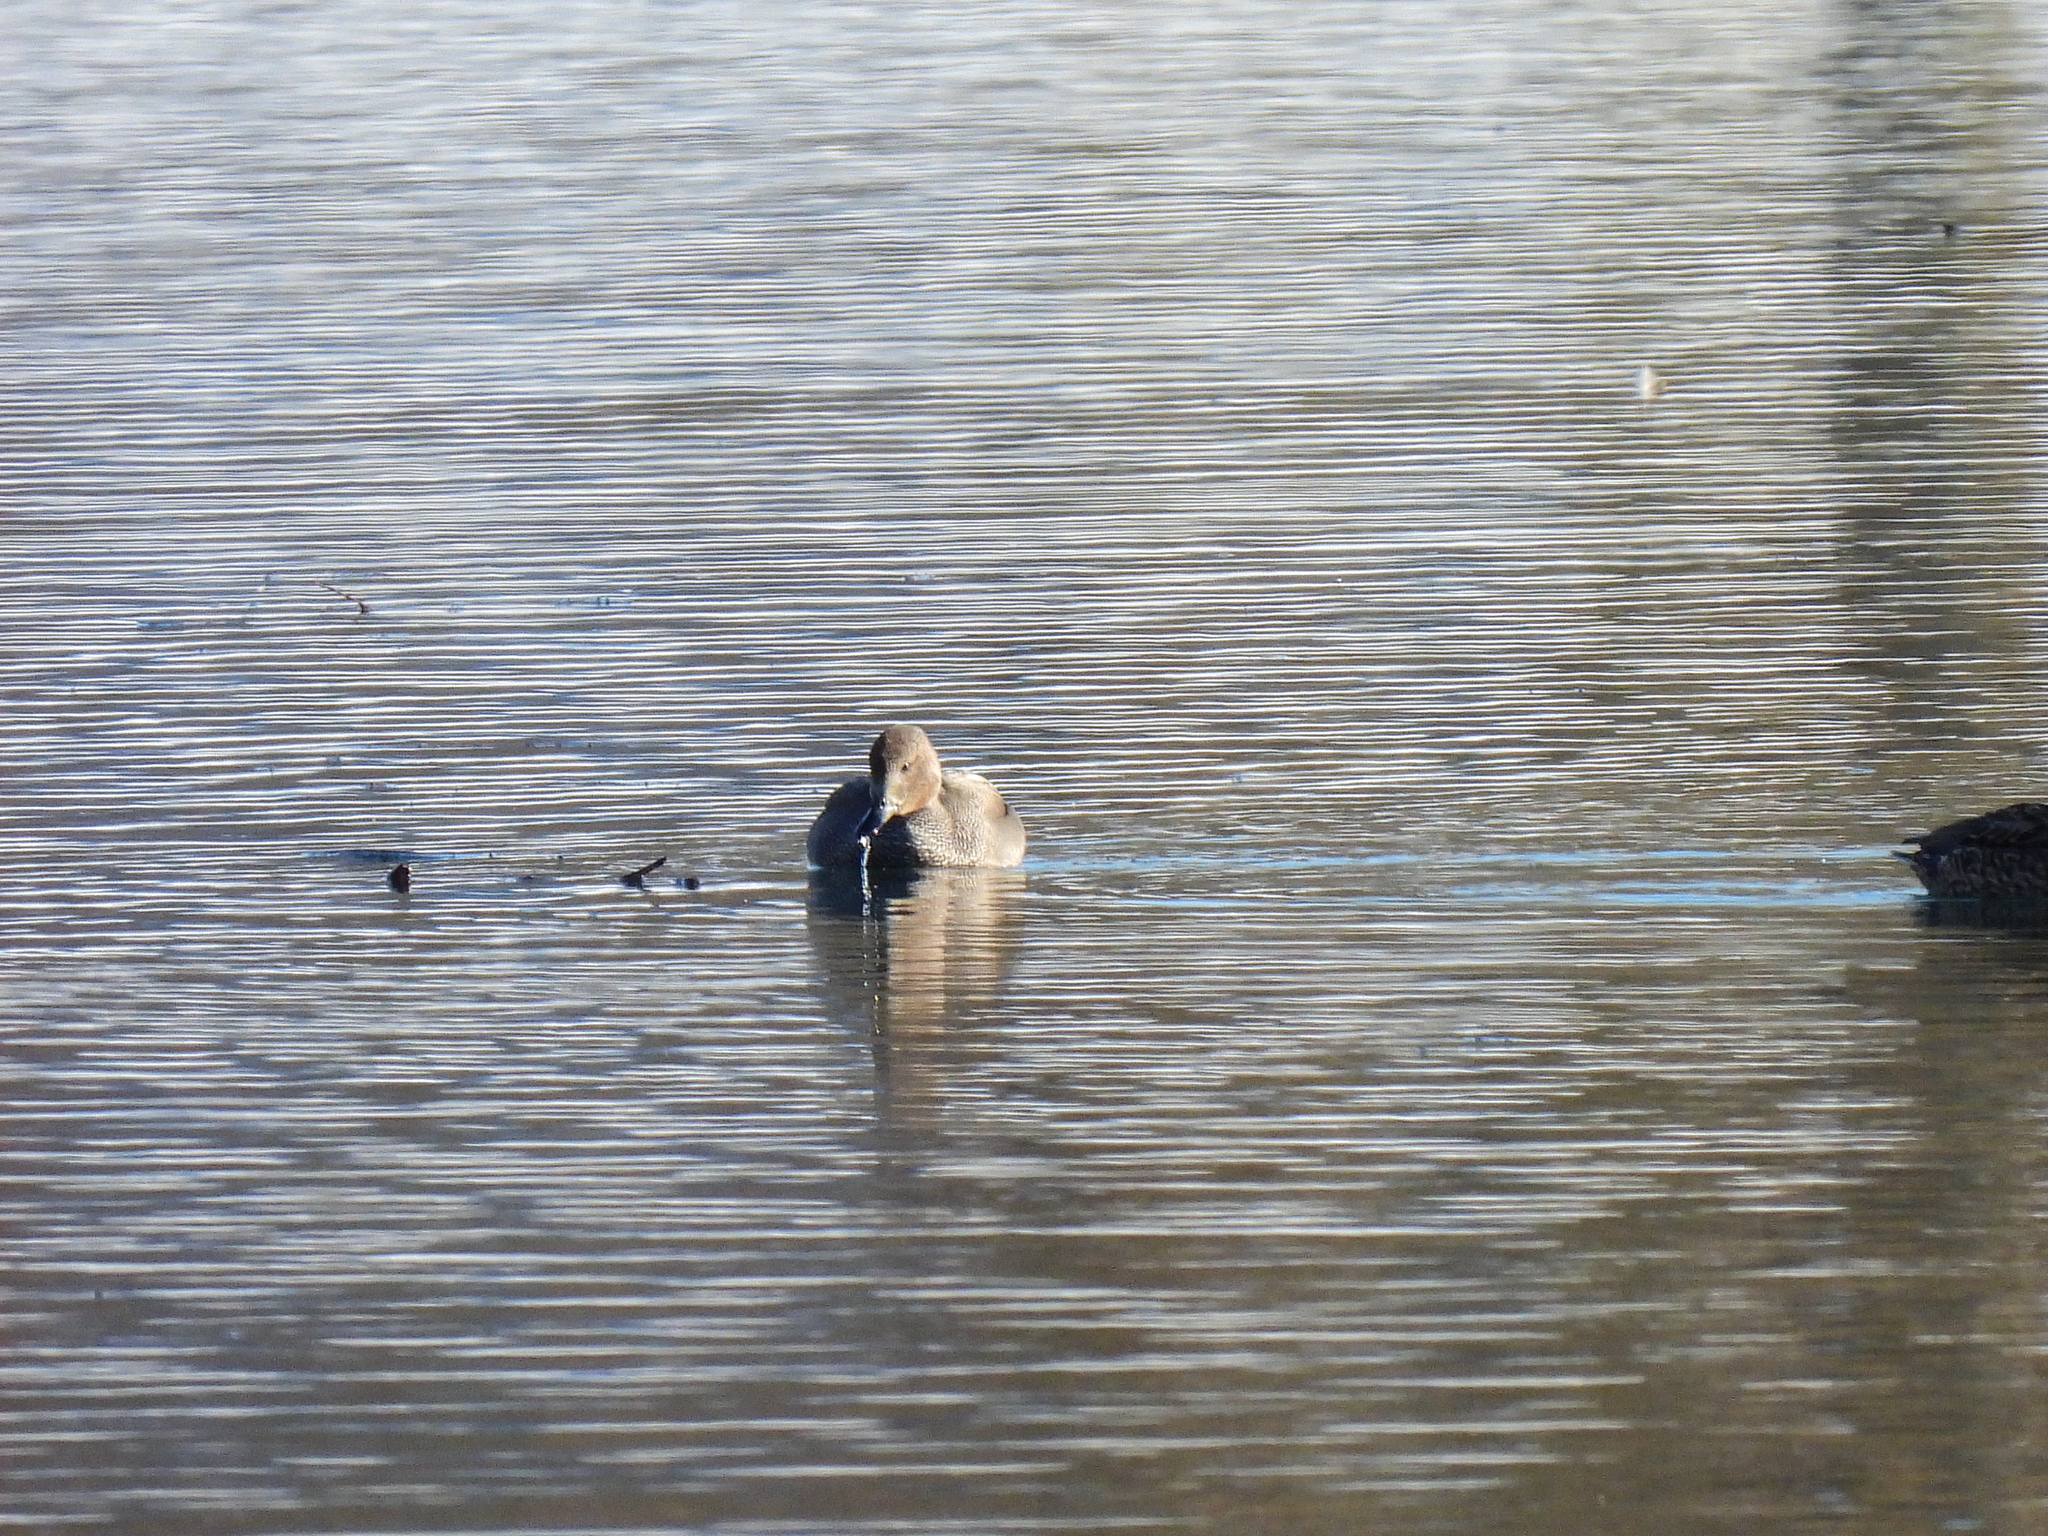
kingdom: Animalia
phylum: Chordata
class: Aves
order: Anseriformes
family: Anatidae
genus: Mareca
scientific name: Mareca strepera
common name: Gadwall
